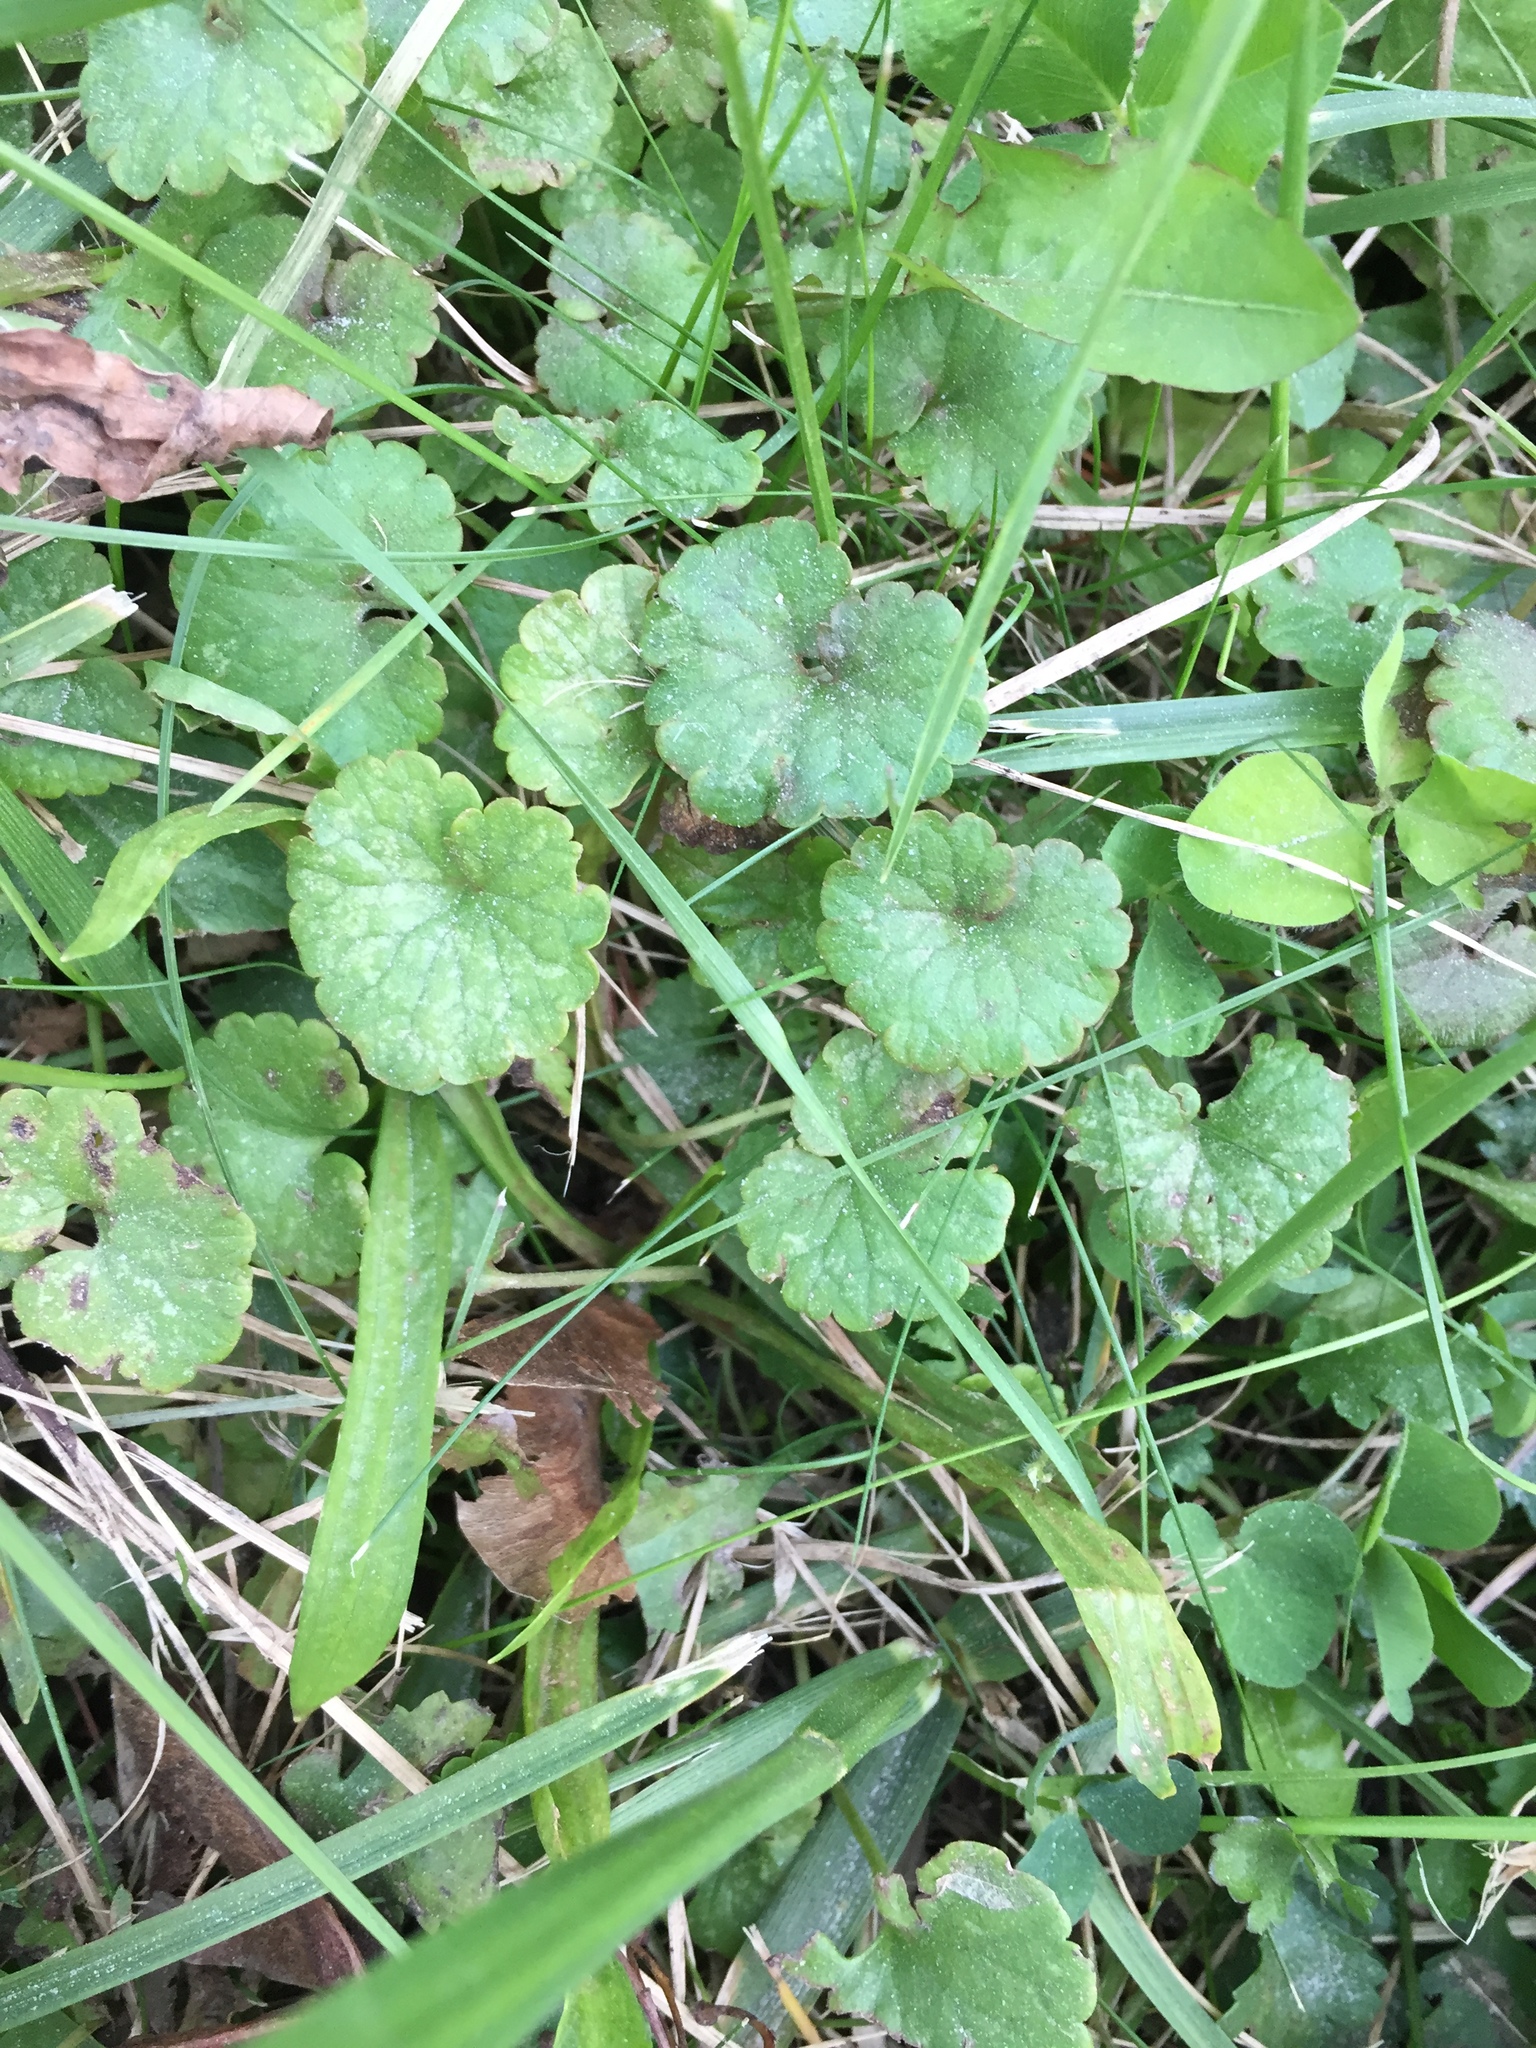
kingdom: Plantae
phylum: Tracheophyta
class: Magnoliopsida
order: Lamiales
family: Lamiaceae
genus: Glechoma
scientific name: Glechoma hederacea
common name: Ground ivy
